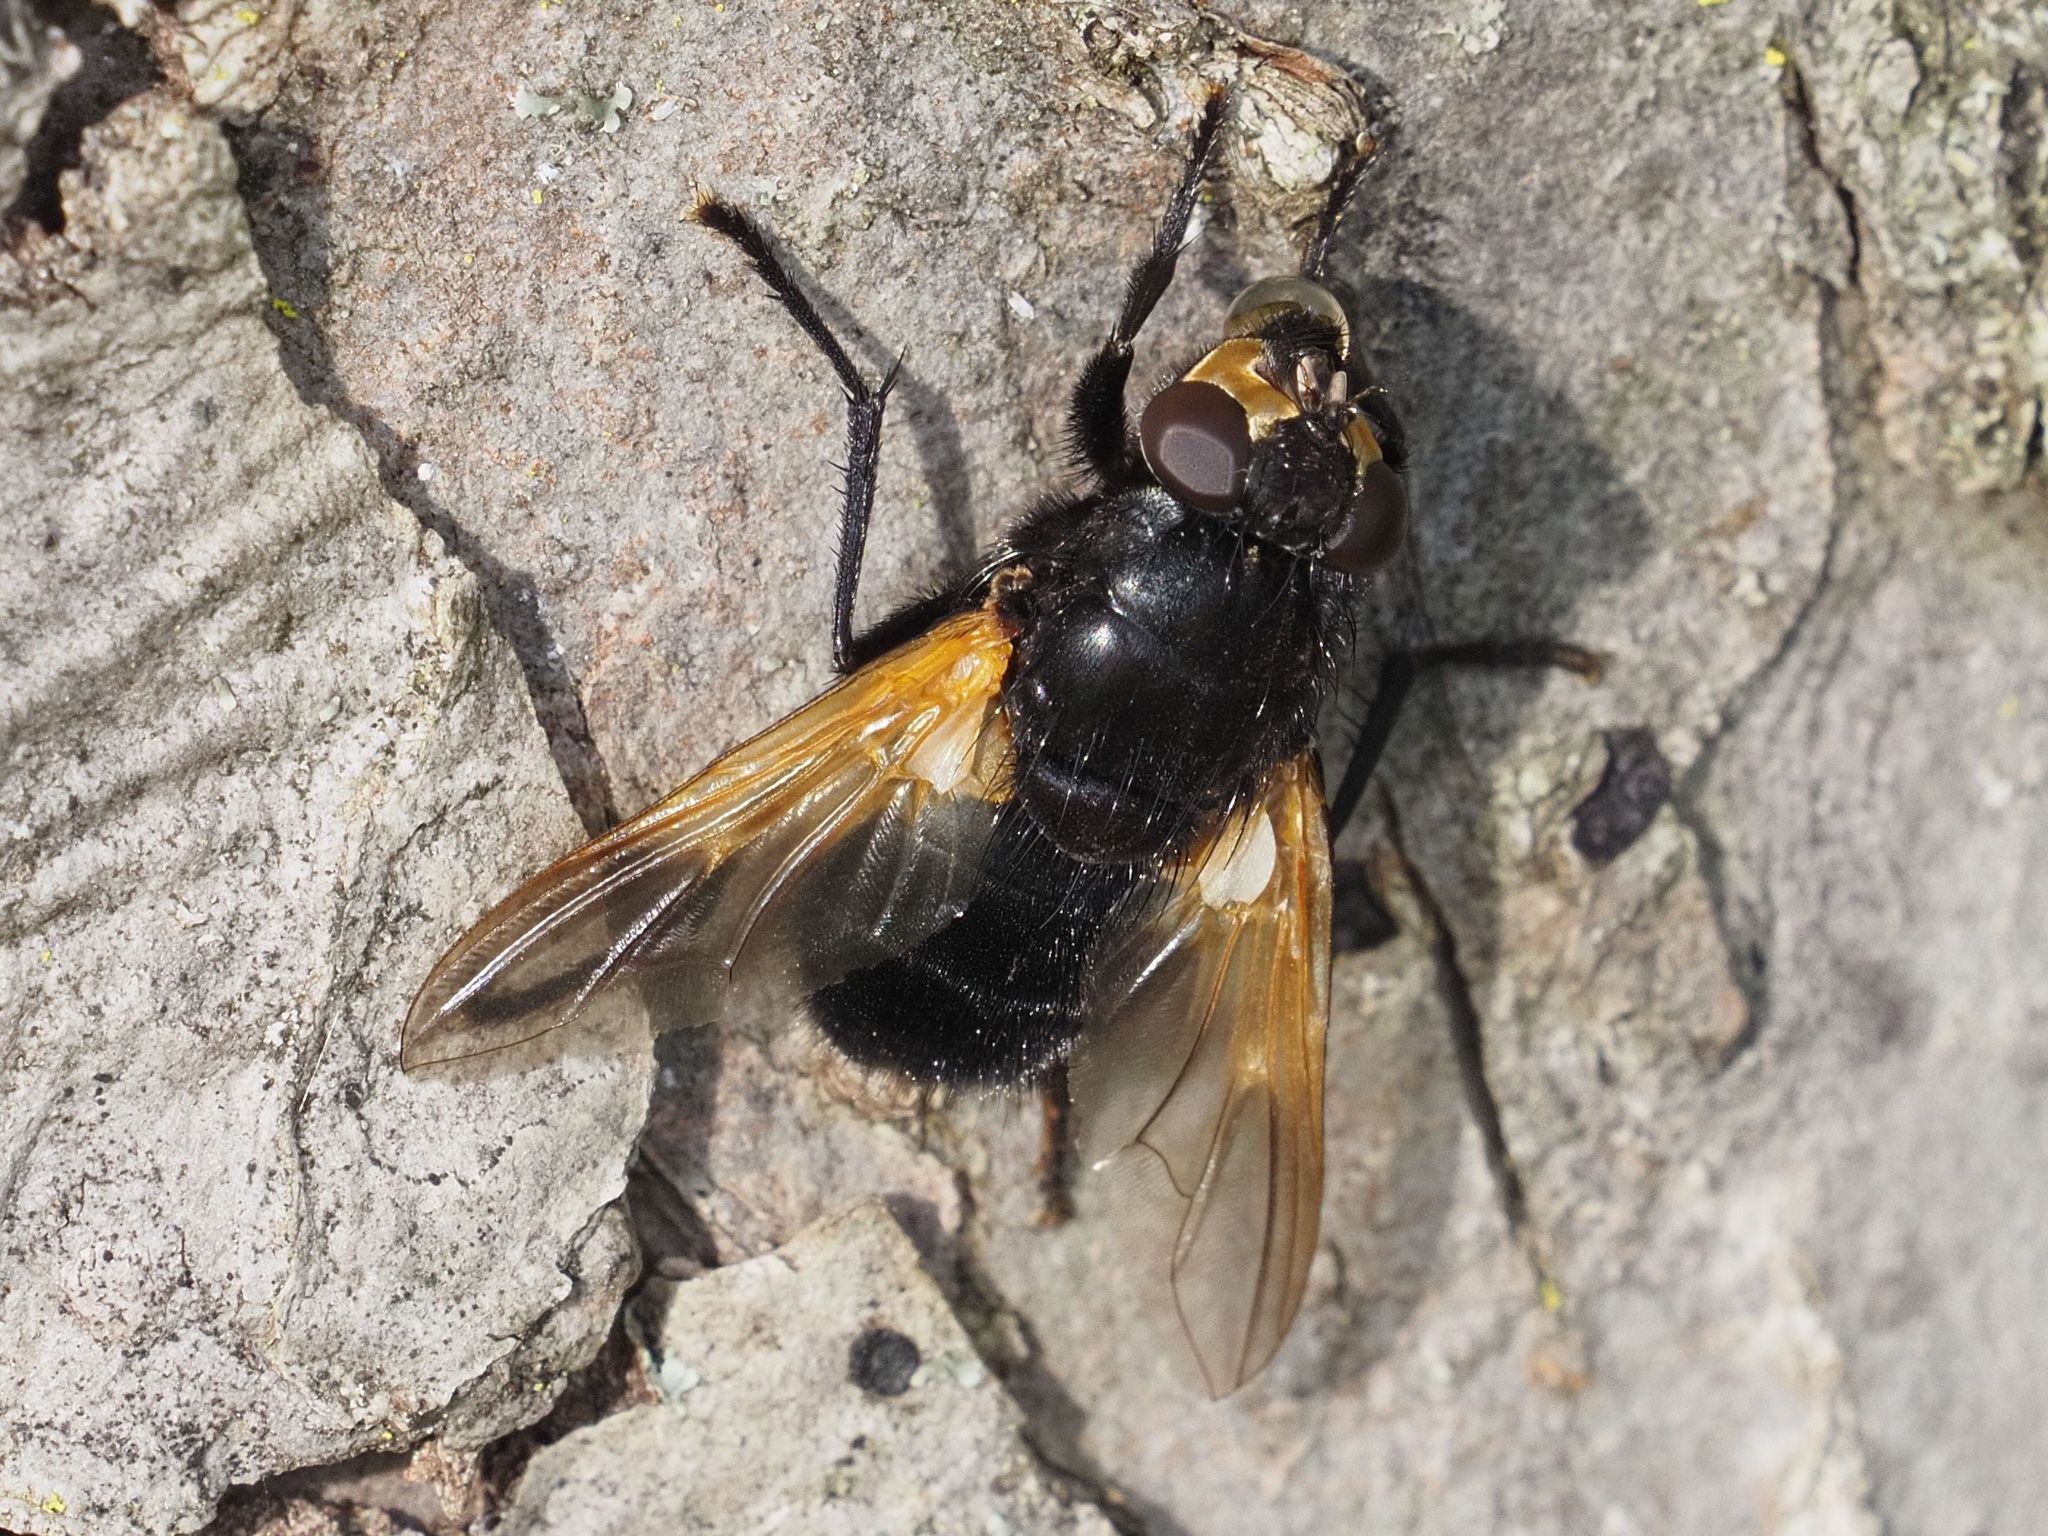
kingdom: Animalia
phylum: Arthropoda
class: Insecta
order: Diptera
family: Muscidae
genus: Mesembrina
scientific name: Mesembrina meridiana
